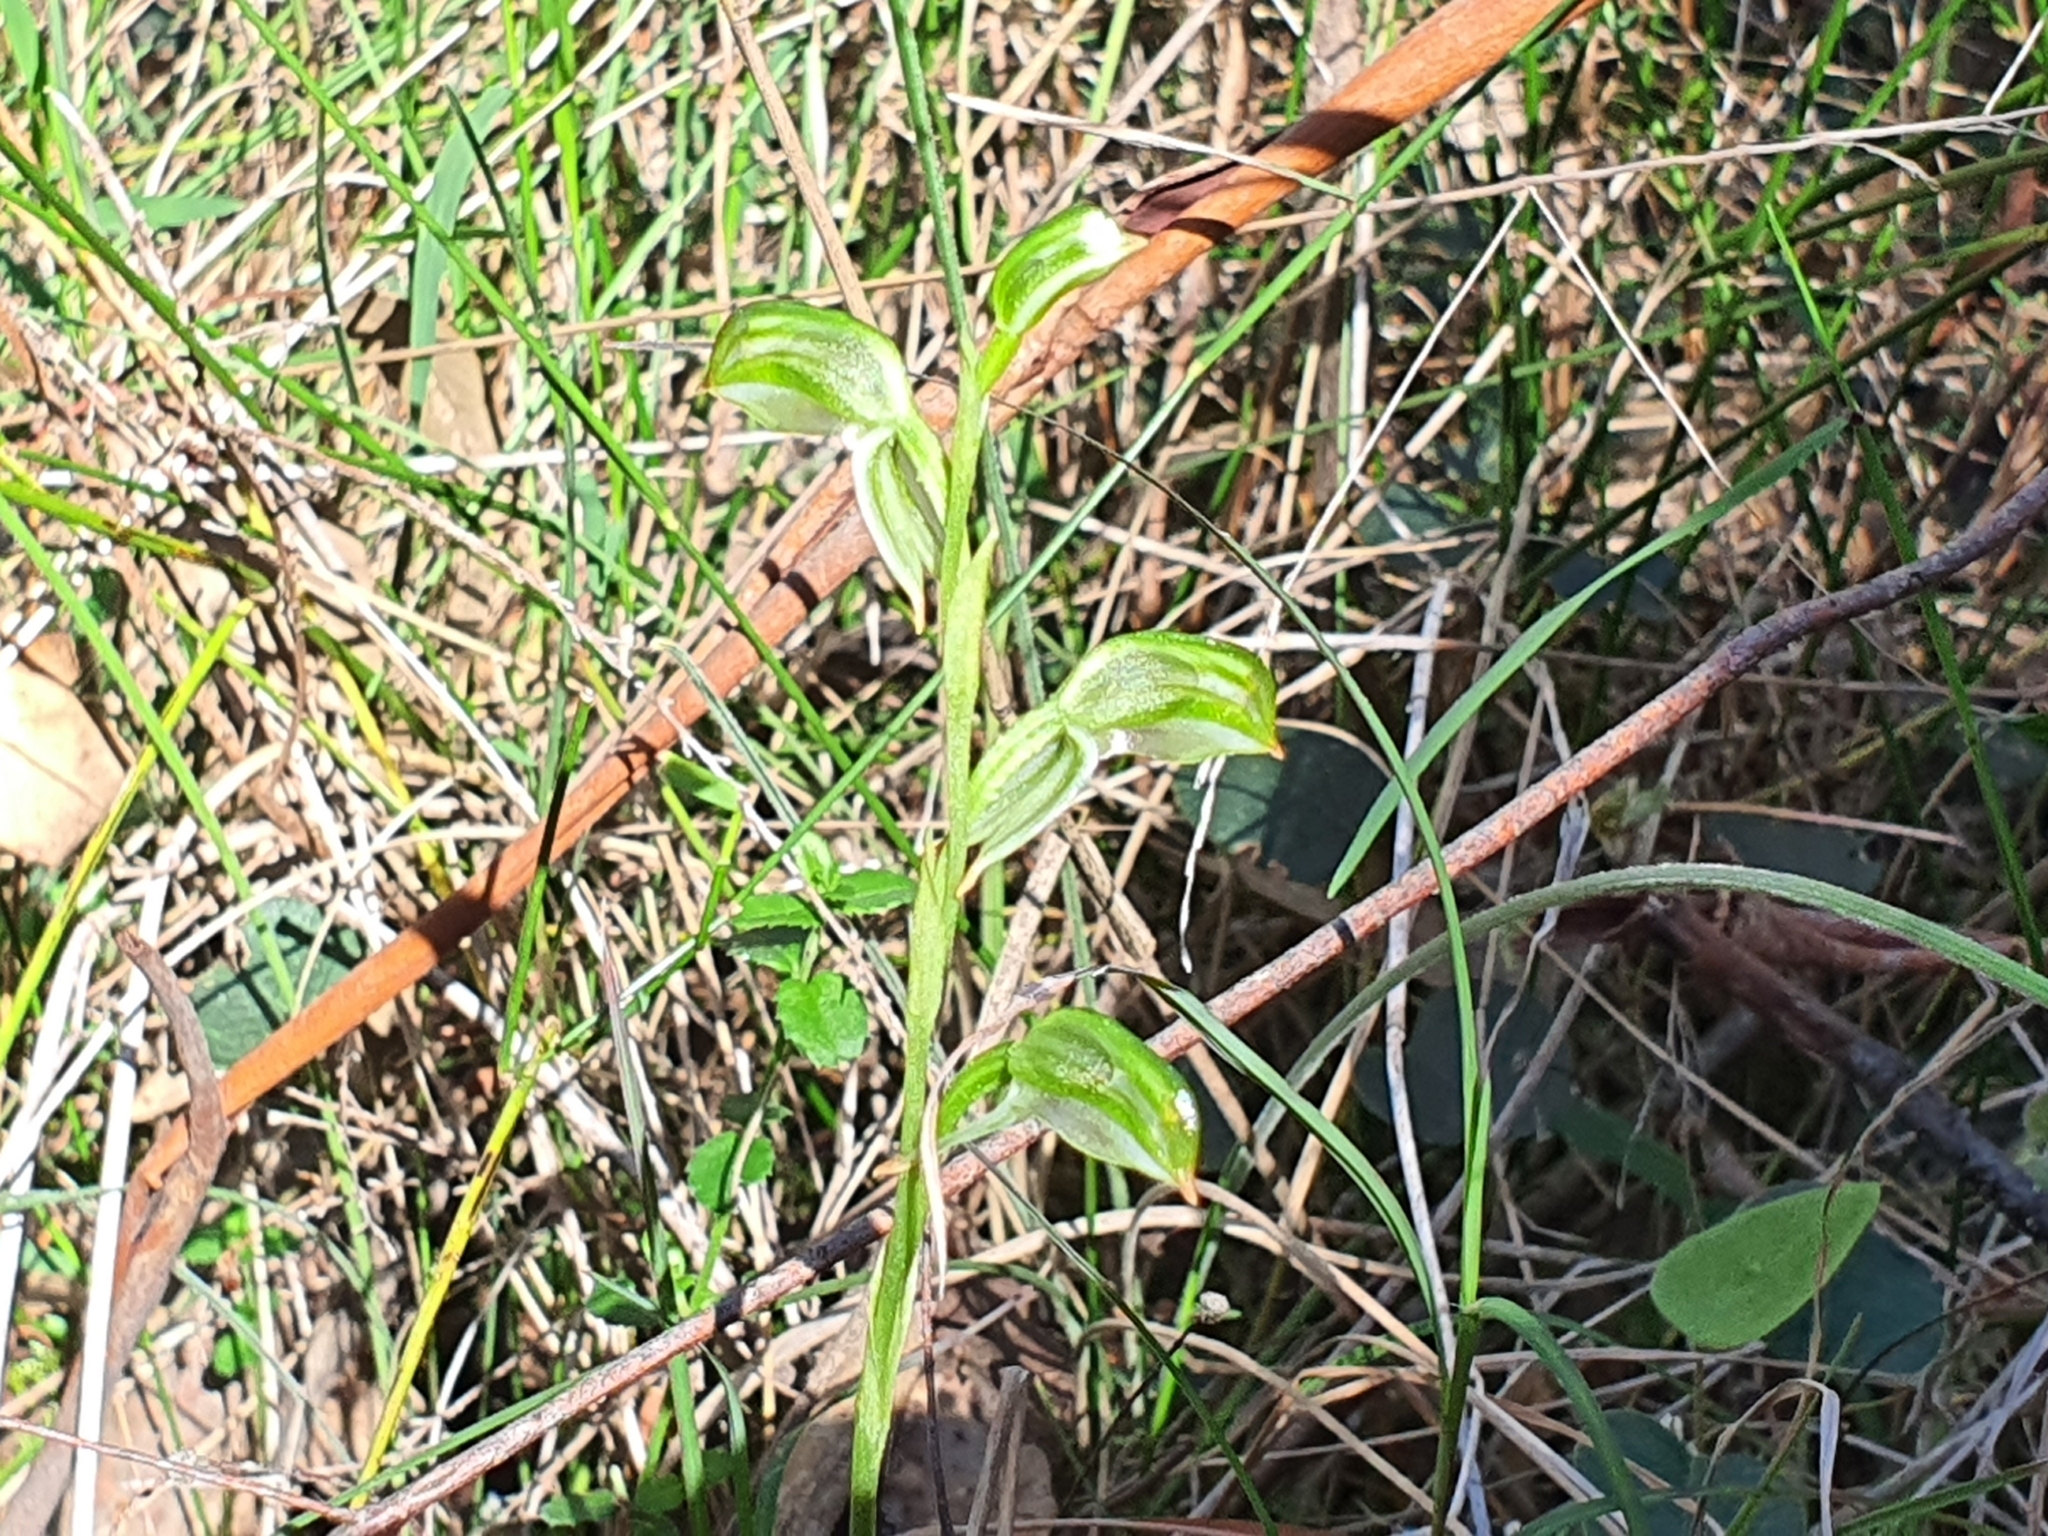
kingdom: Plantae
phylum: Tracheophyta
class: Liliopsida
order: Asparagales
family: Orchidaceae
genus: Pterostylis
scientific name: Pterostylis melagramma
